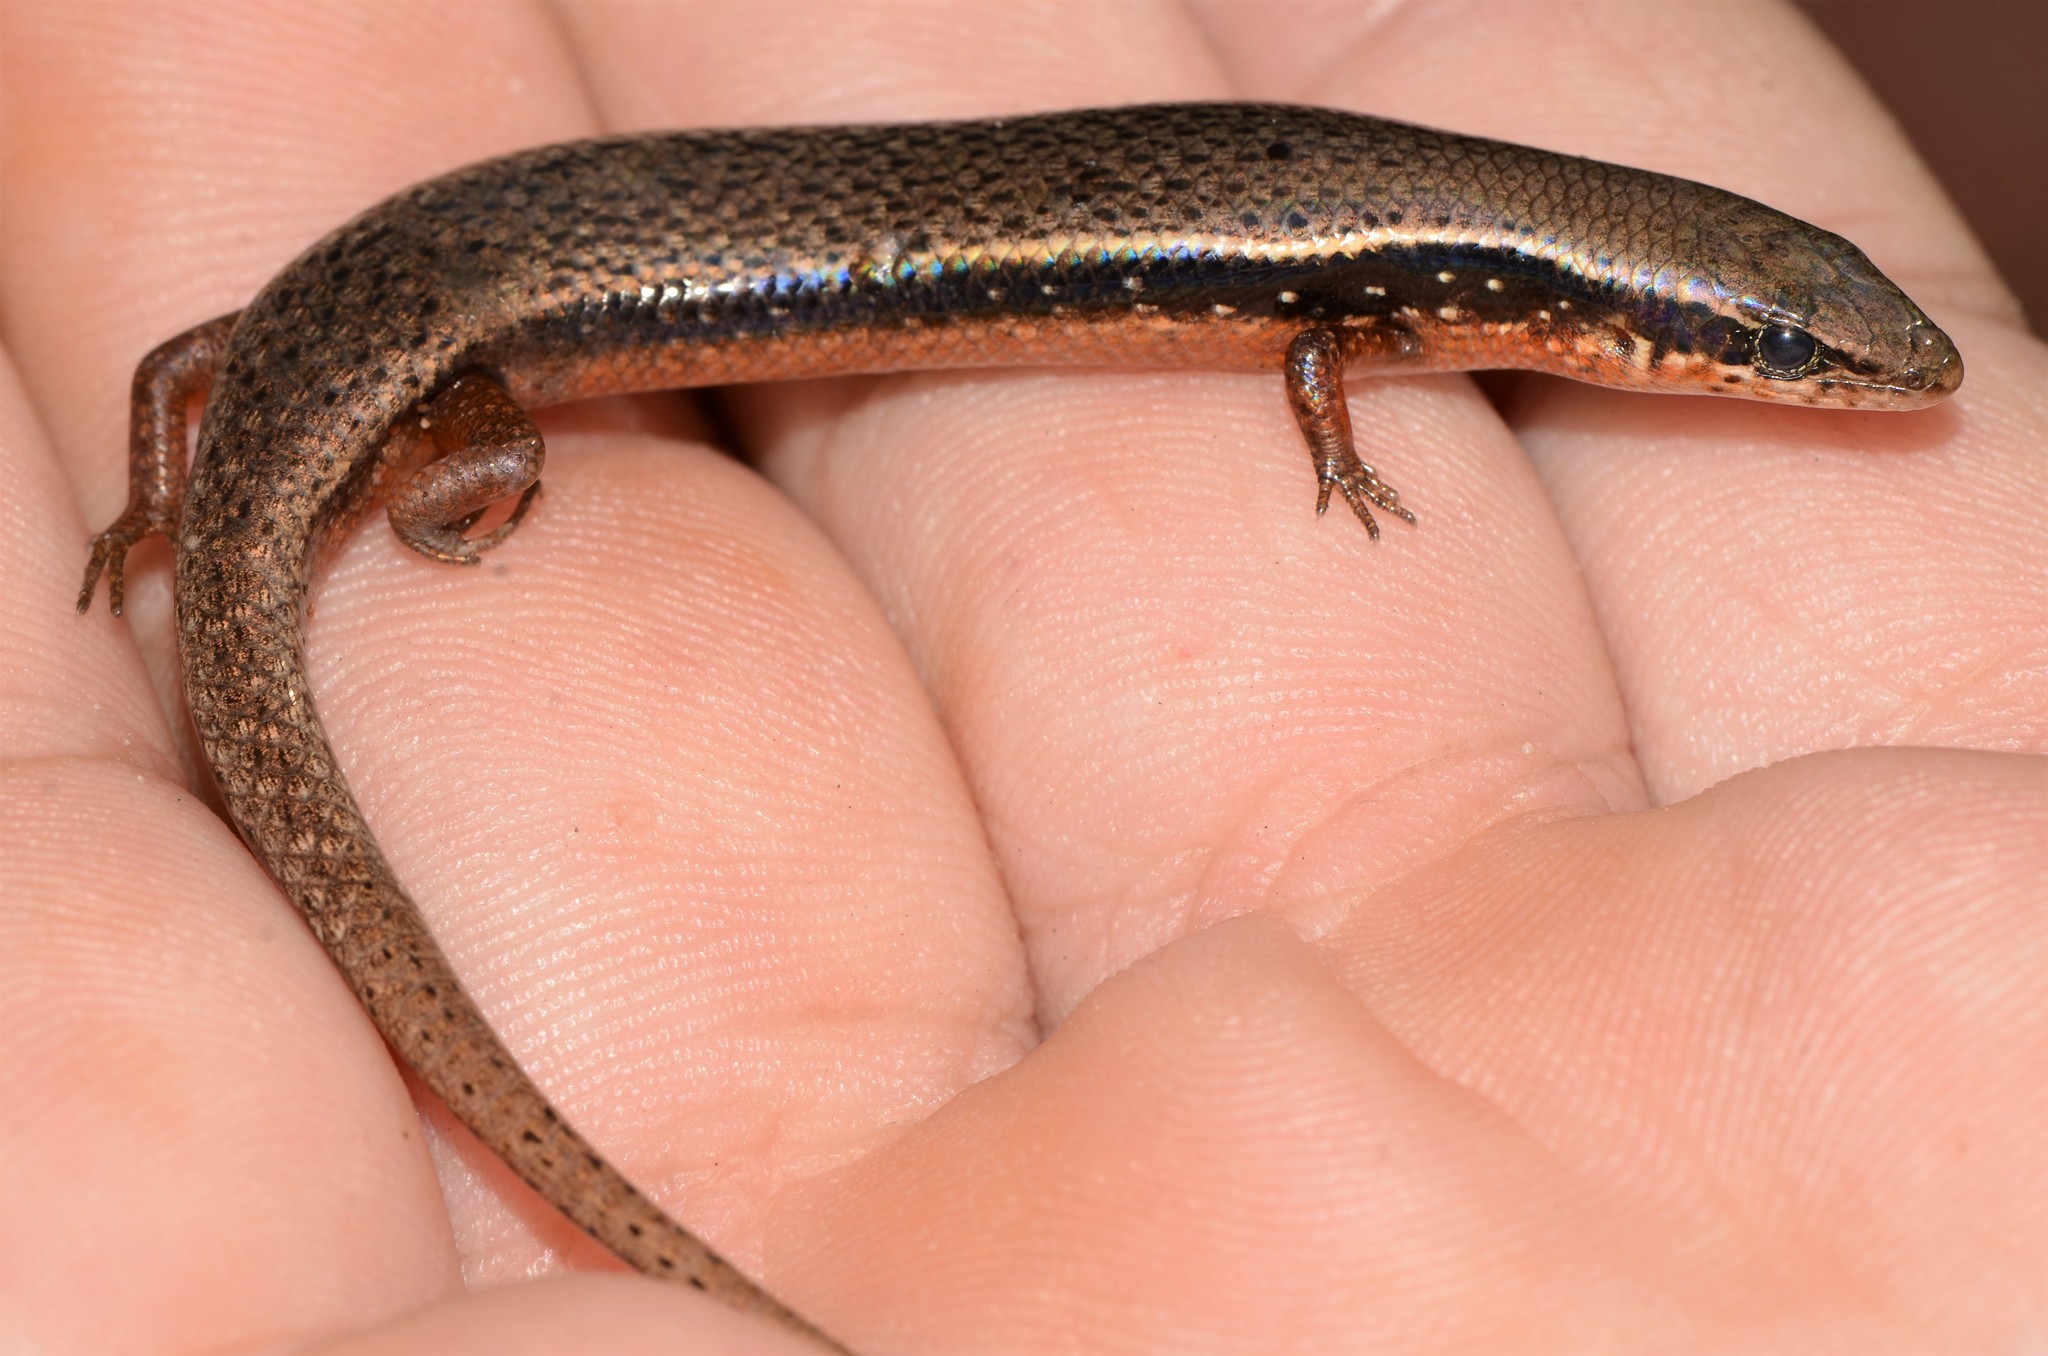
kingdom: Animalia
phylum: Chordata
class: Squamata
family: Scincidae
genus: Panaspis
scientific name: Panaspis wahlbergii
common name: Angolan snake-eyed skink
